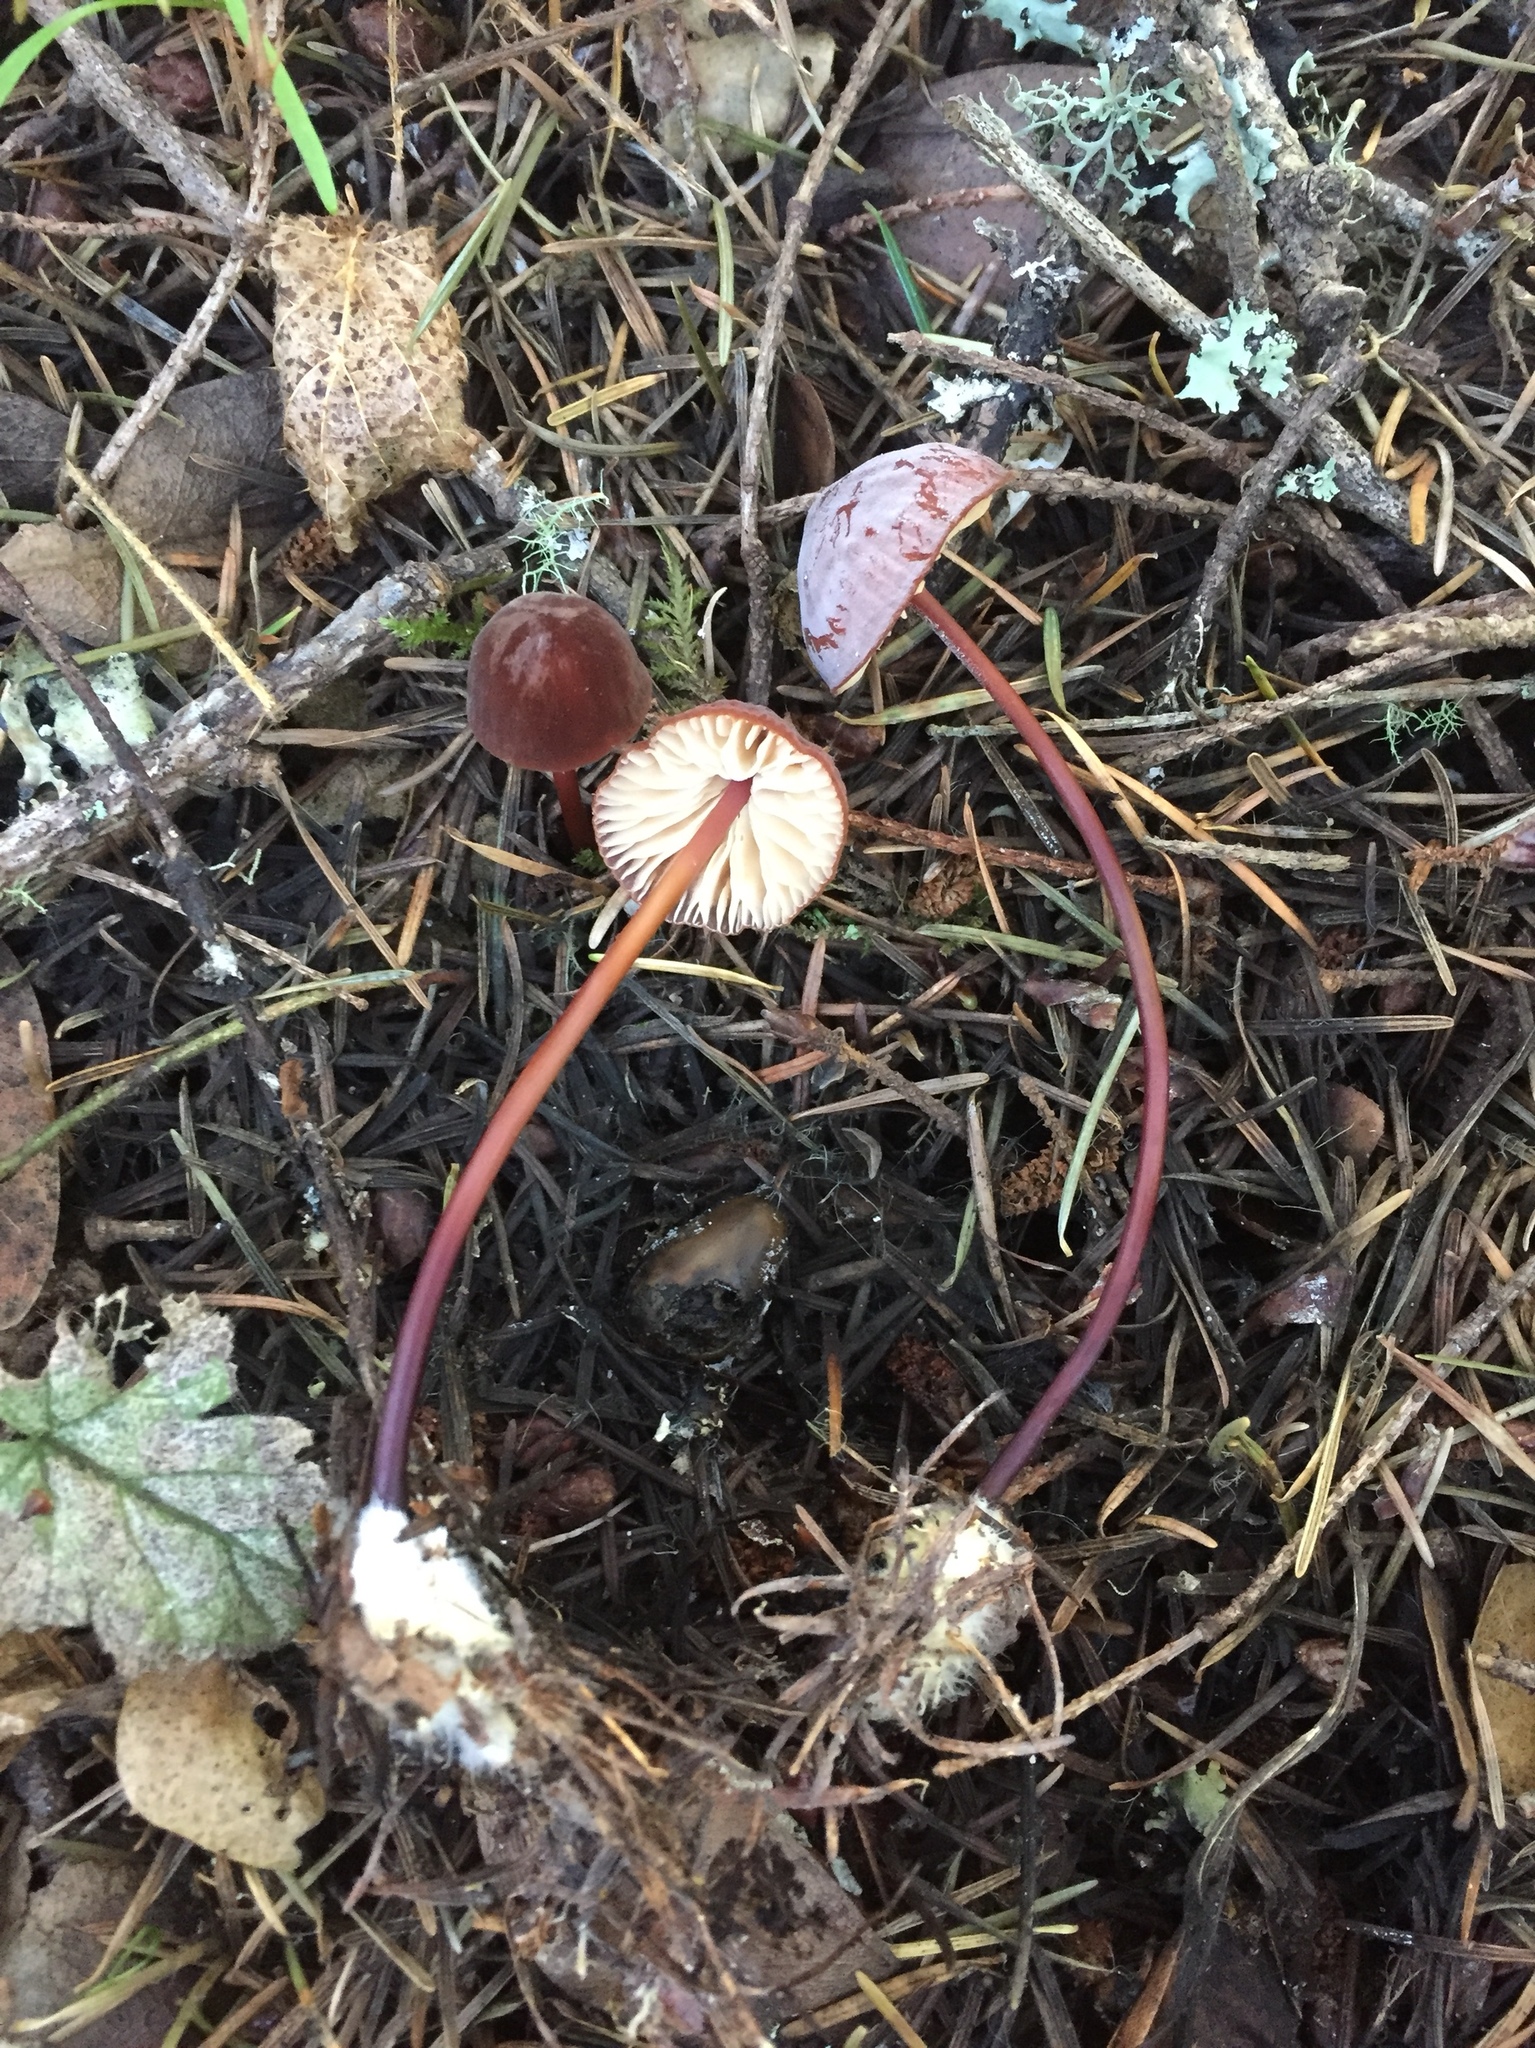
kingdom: Fungi
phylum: Basidiomycota
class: Agaricomycetes
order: Agaricales
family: Marasmiaceae
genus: Marasmius
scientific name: Marasmius plicatulus
